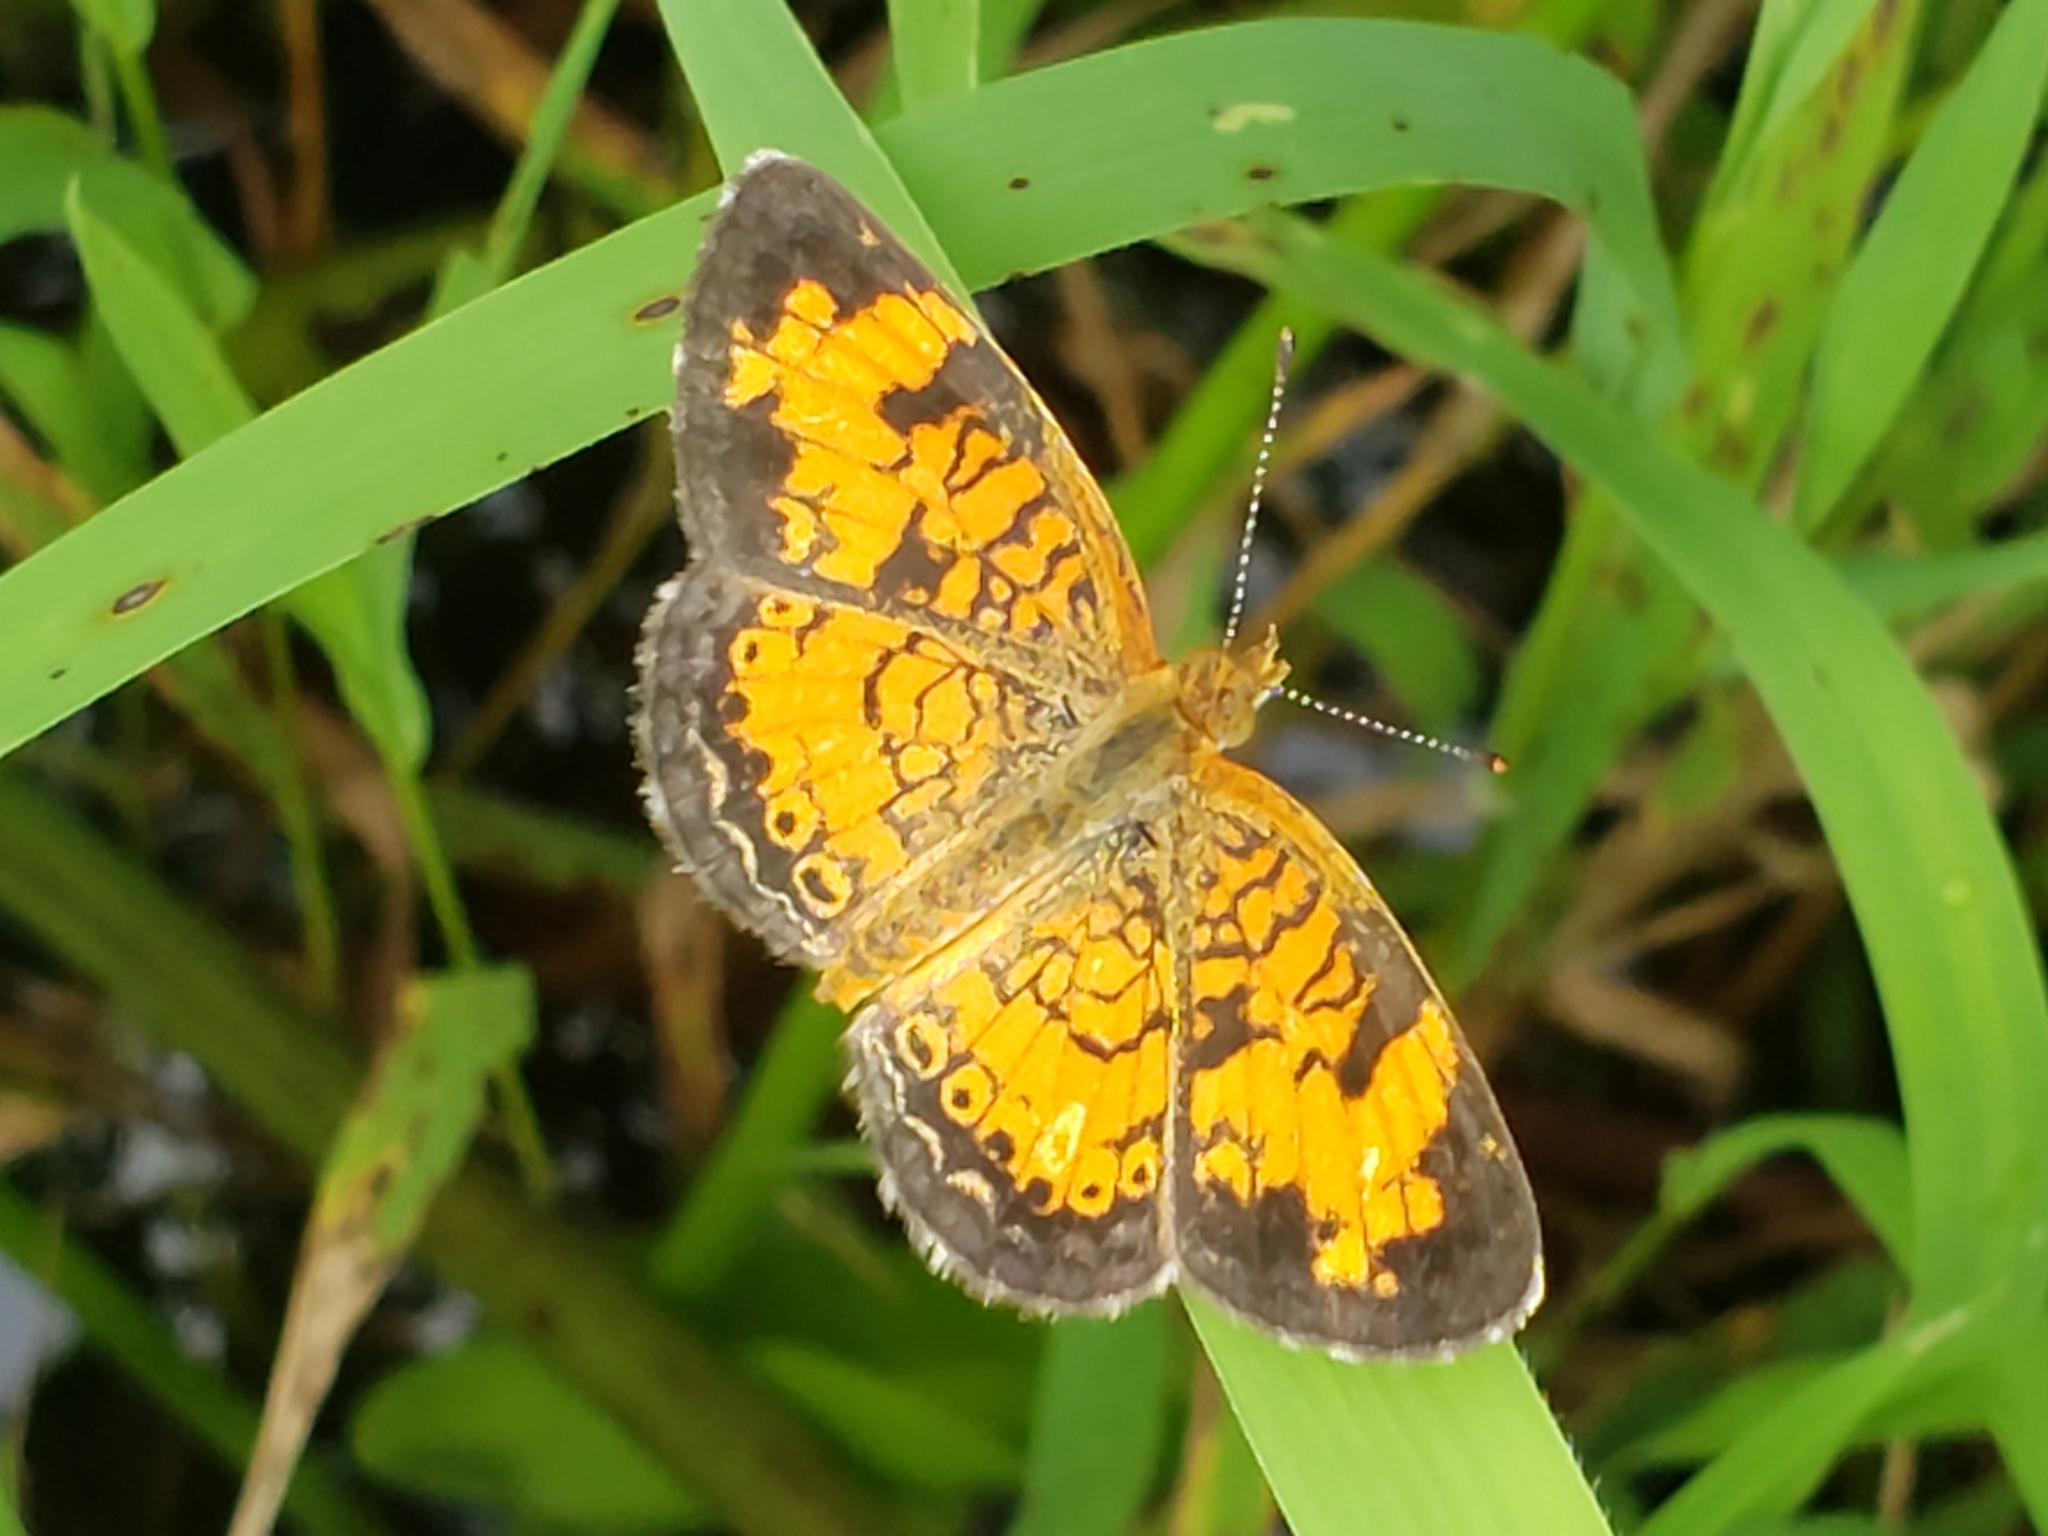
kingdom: Animalia
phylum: Arthropoda
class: Insecta
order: Lepidoptera
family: Nymphalidae
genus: Phyciodes
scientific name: Phyciodes tharos
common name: Pearl crescent
